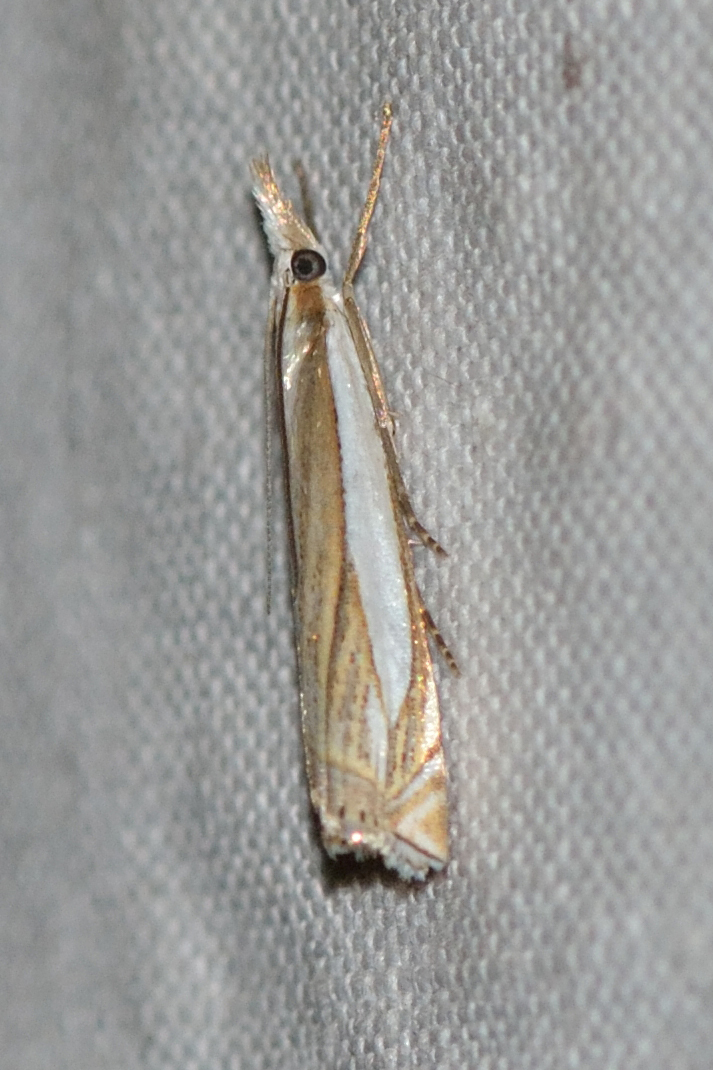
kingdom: Animalia
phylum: Arthropoda
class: Insecta
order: Lepidoptera
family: Crambidae
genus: Crambus
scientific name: Crambus pascuella
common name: Inlaid grass-veneer
